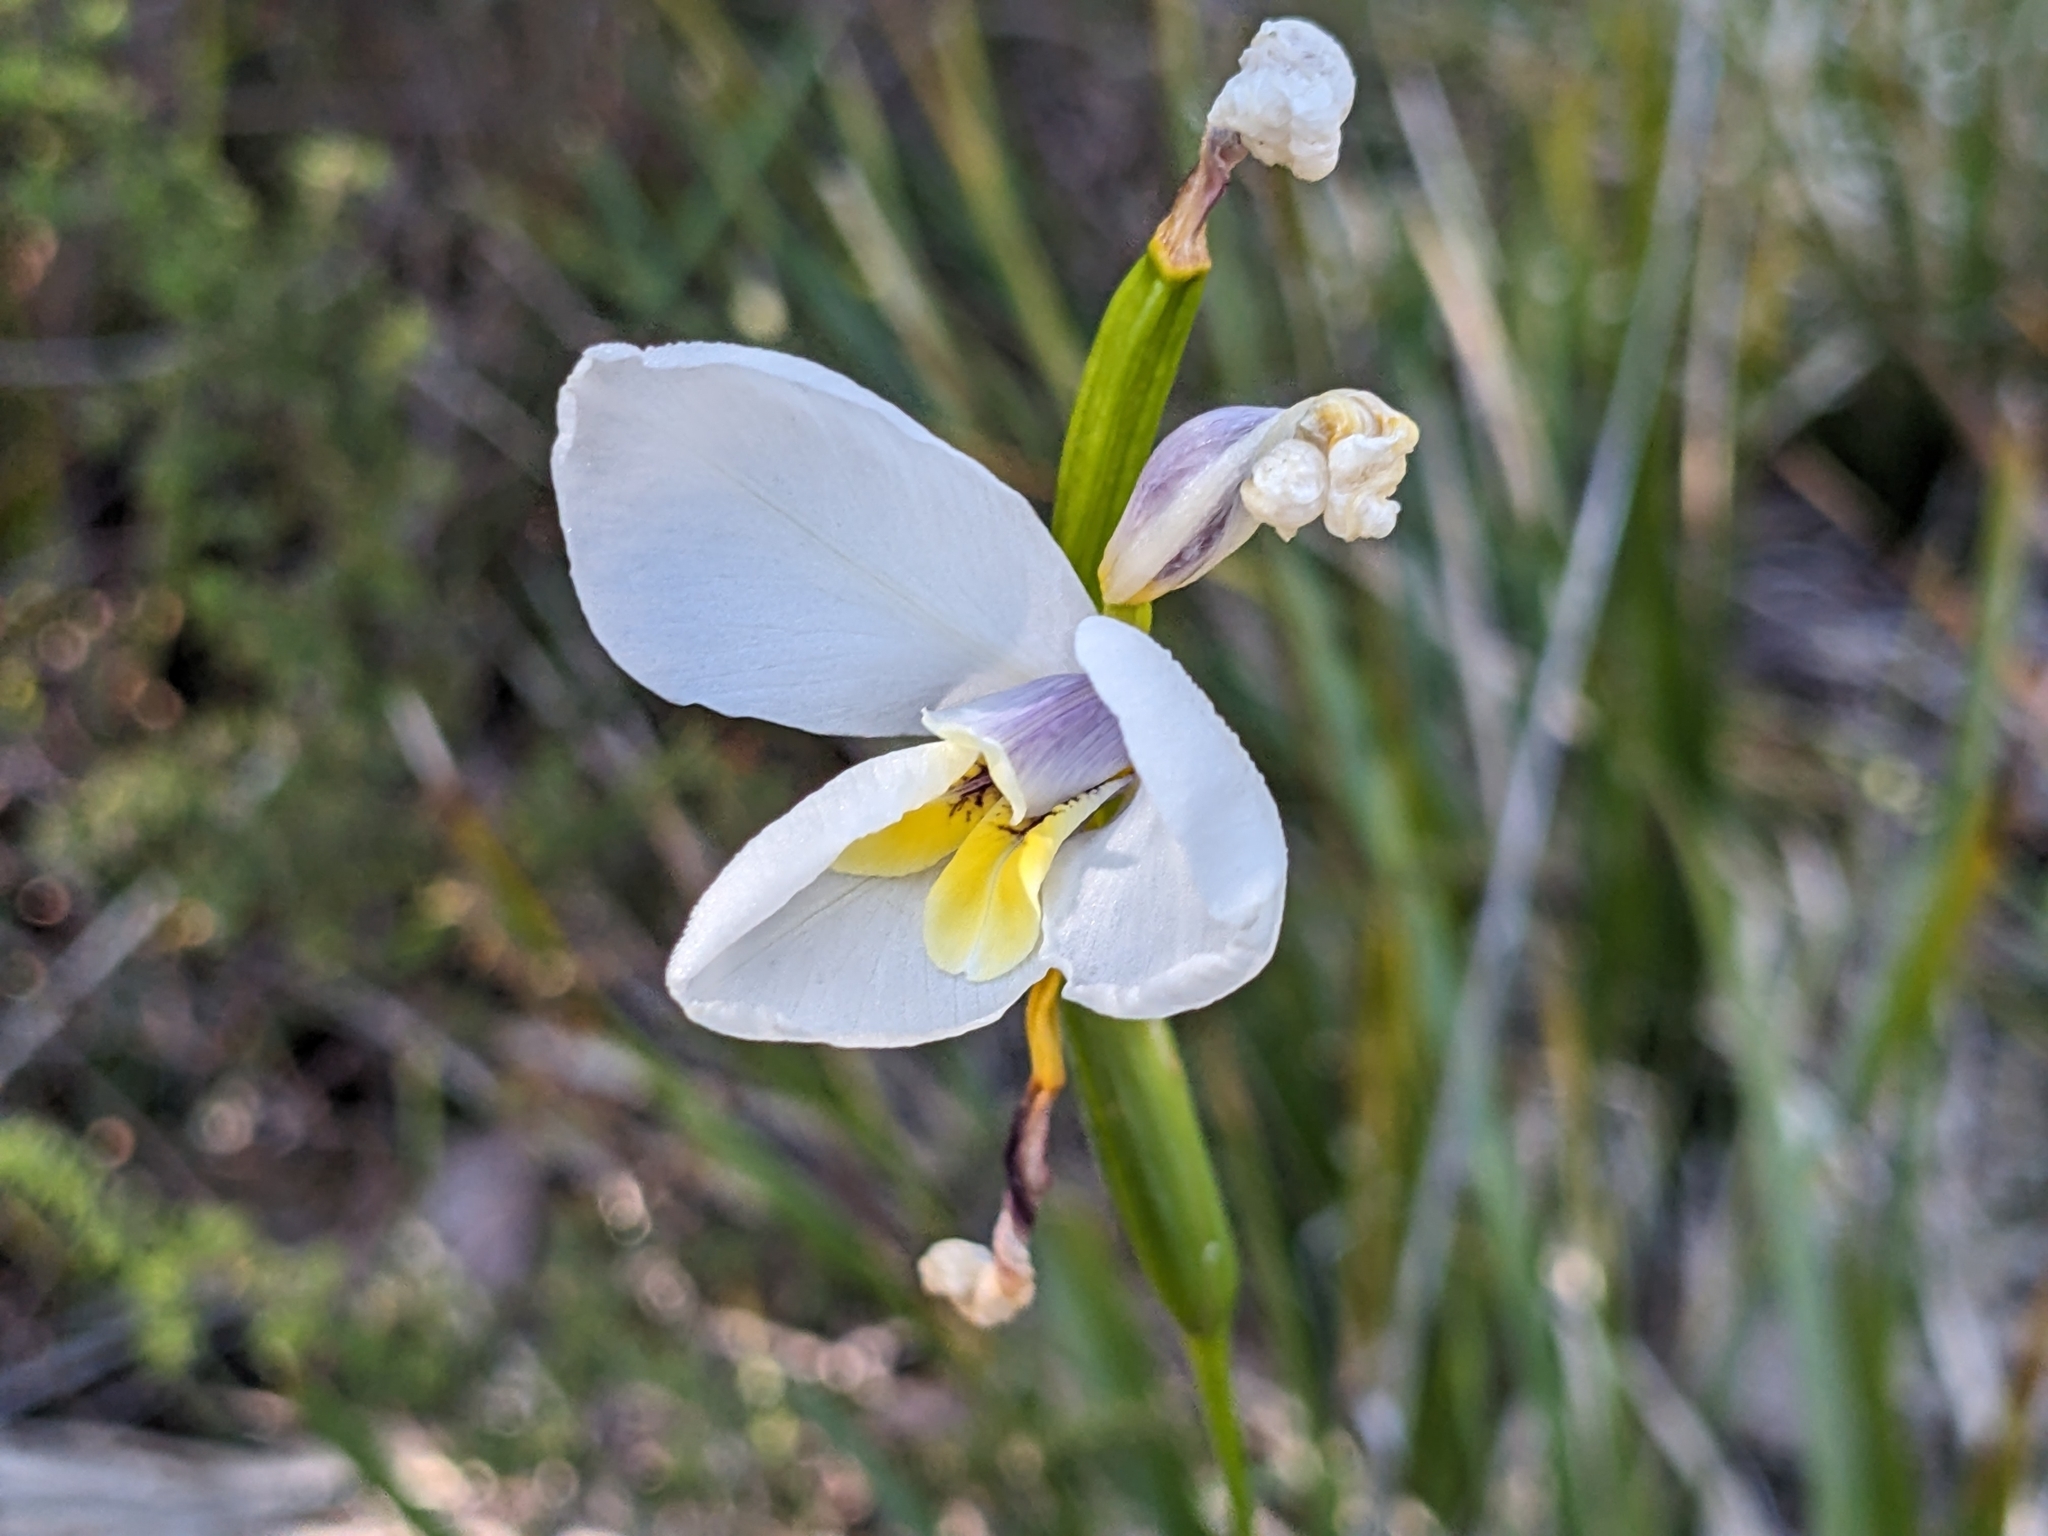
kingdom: Plantae
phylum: Tracheophyta
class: Liliopsida
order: Asparagales
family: Iridaceae
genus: Diplarrena
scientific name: Diplarrena moraea
